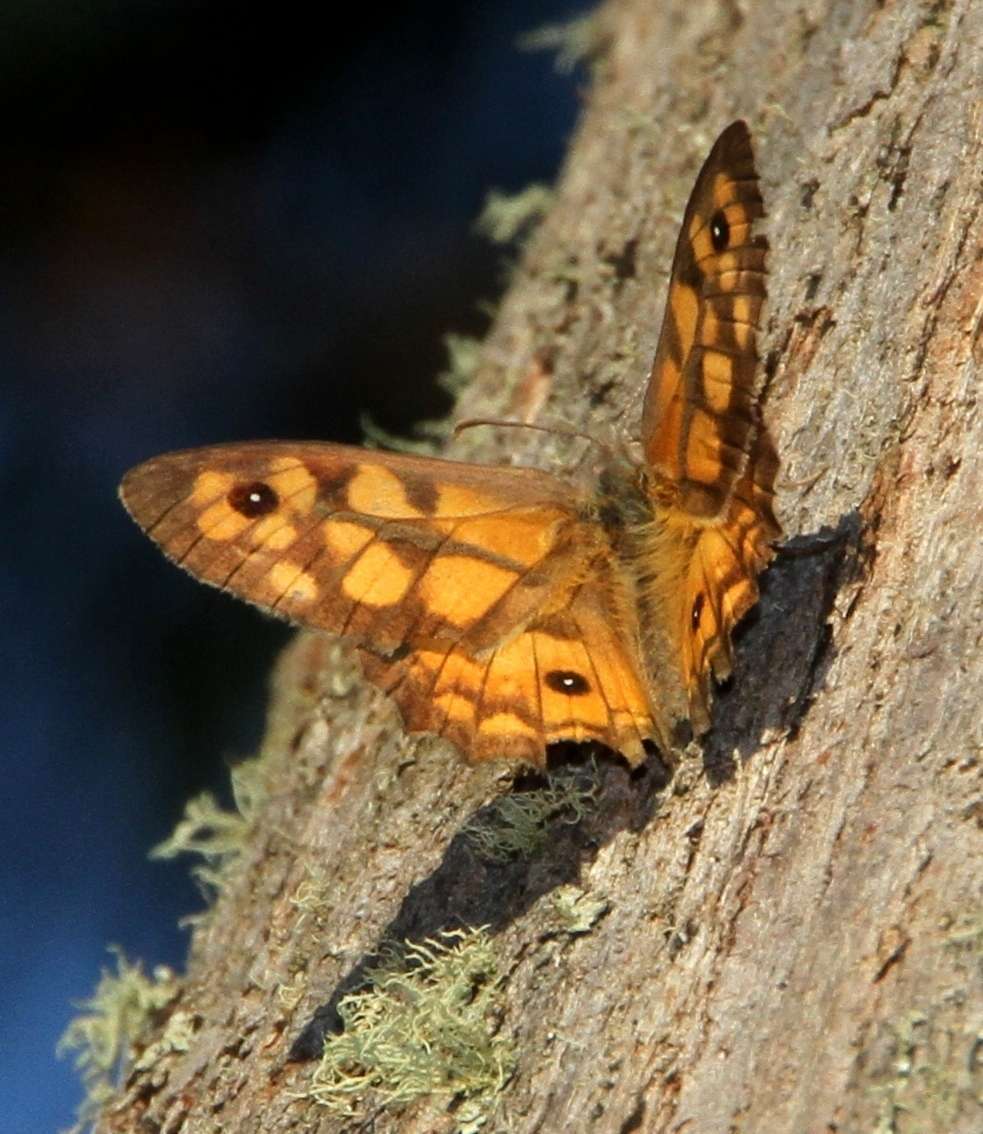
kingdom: Animalia
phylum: Arthropoda
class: Insecta
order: Lepidoptera
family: Nymphalidae
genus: Geitoneura
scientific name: Geitoneura klugii
